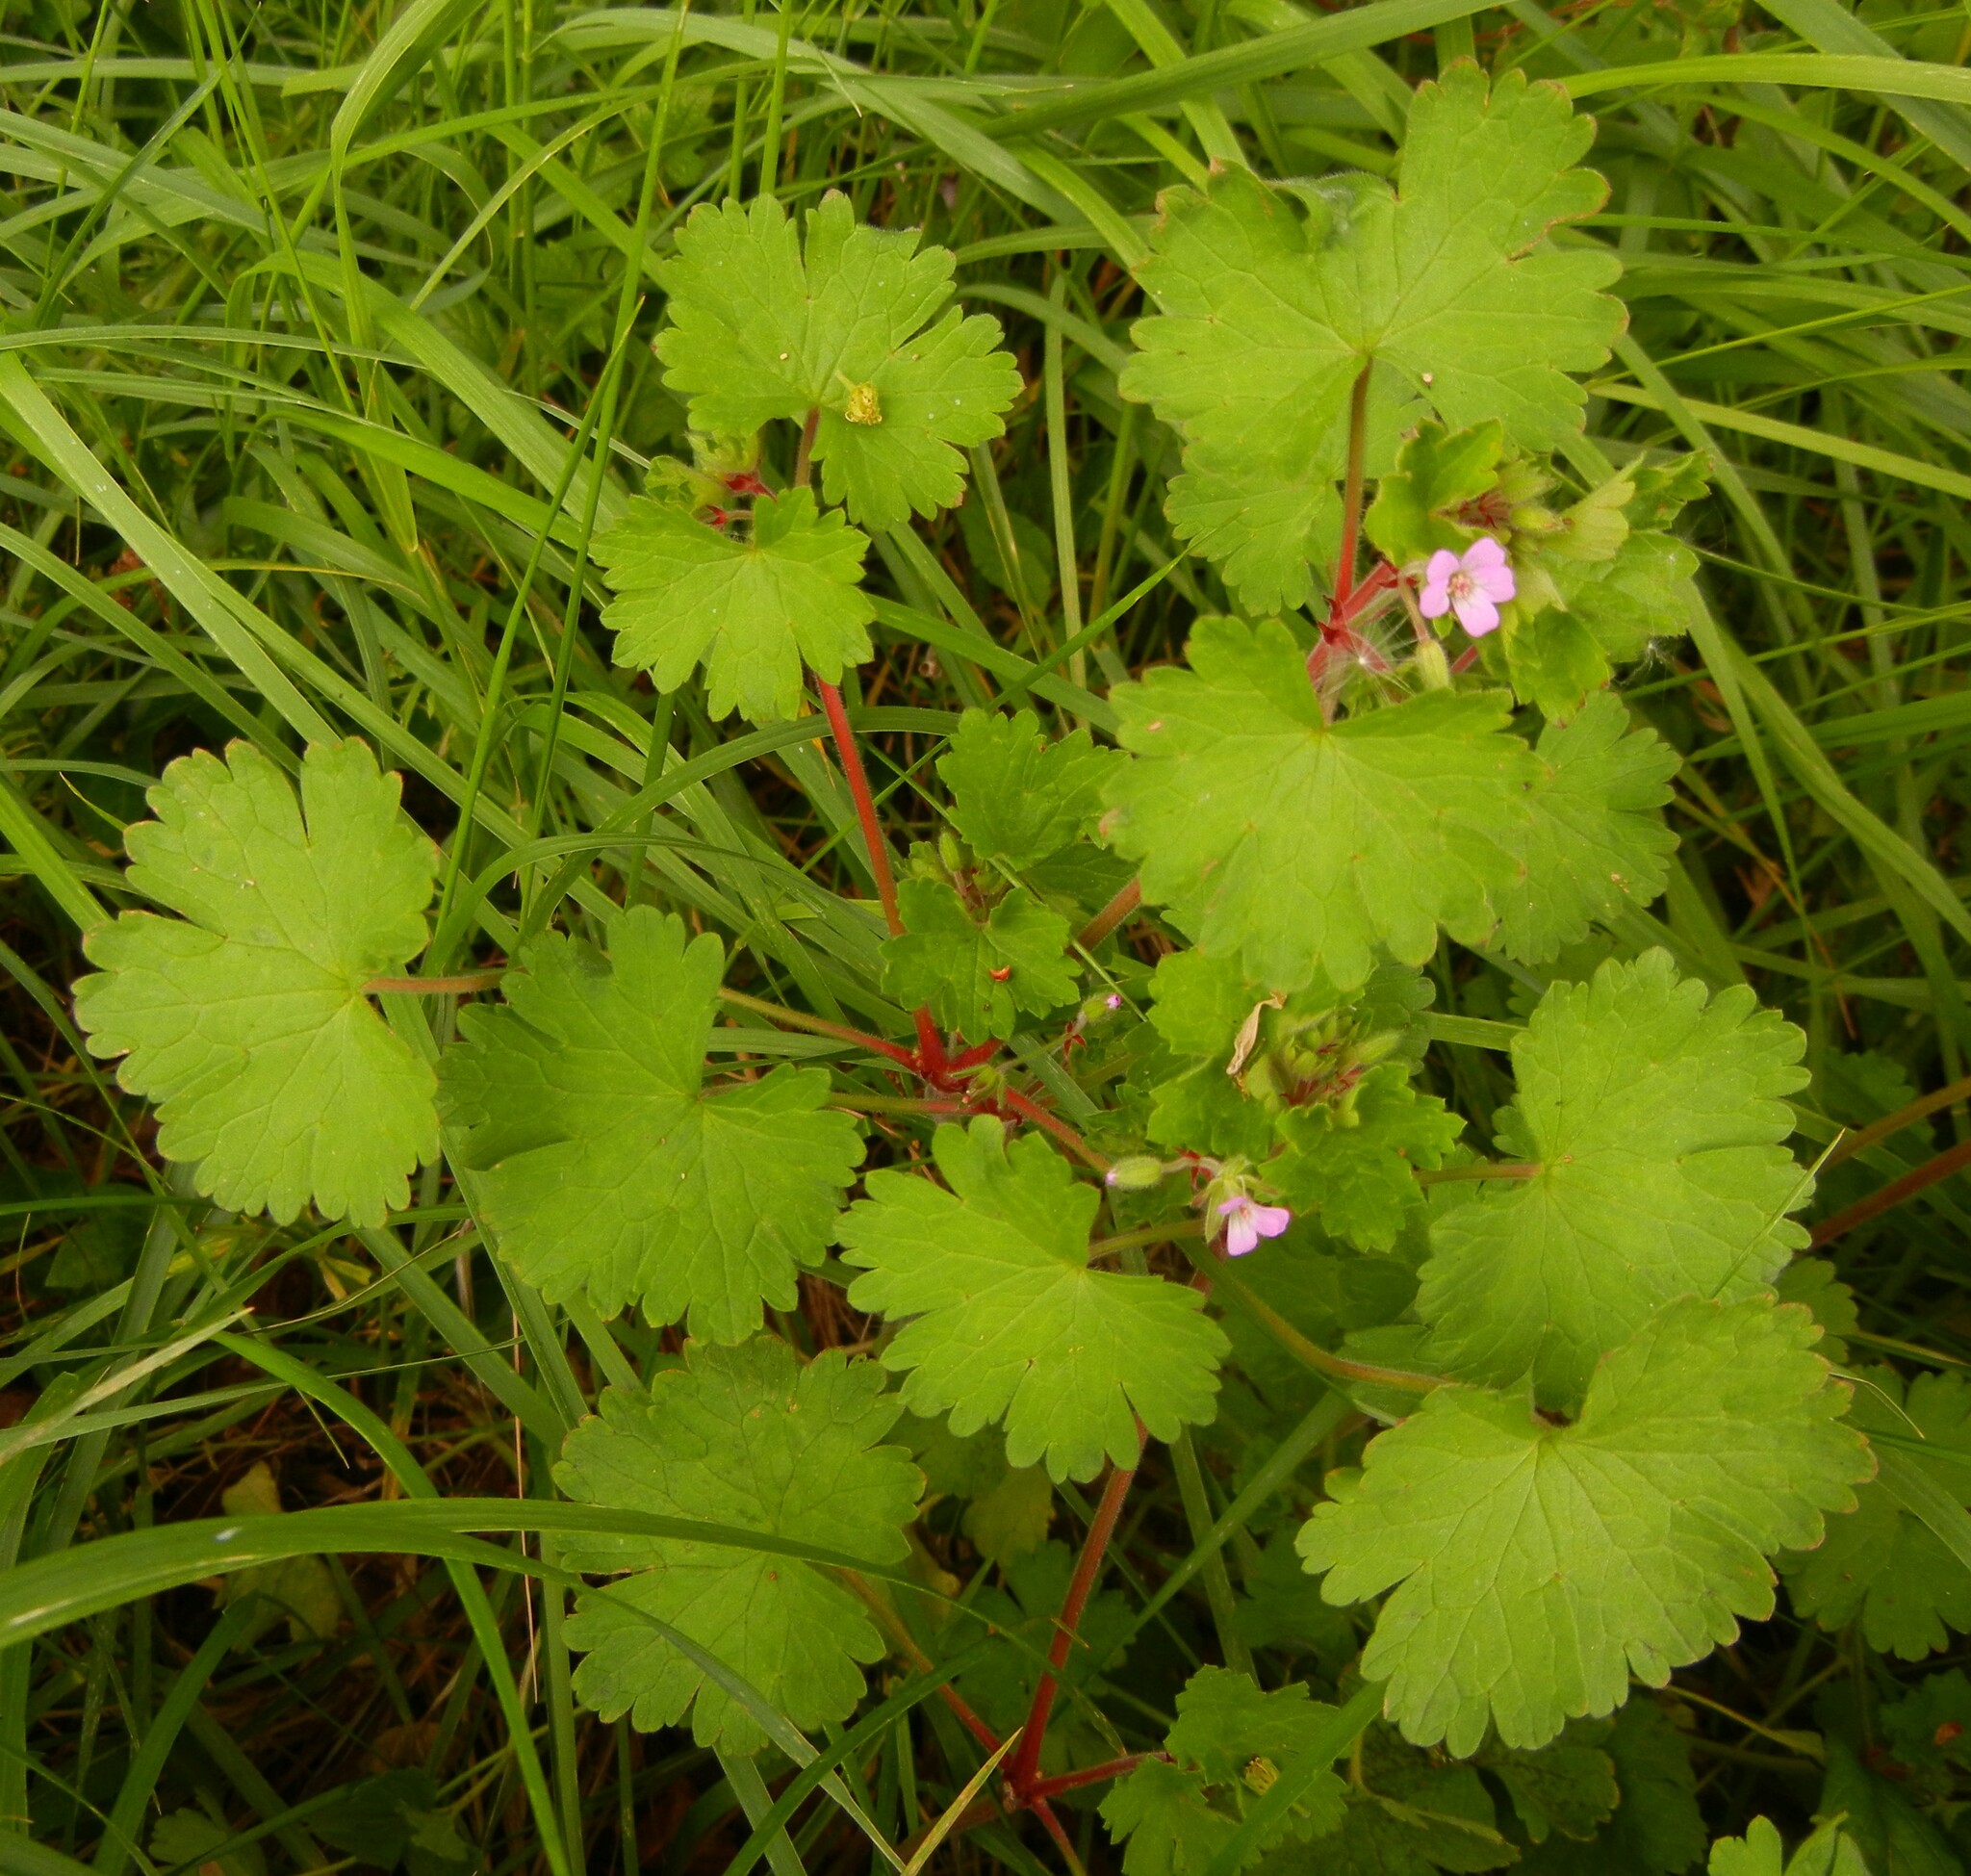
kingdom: Plantae
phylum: Tracheophyta
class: Magnoliopsida
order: Geraniales
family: Geraniaceae
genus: Geranium
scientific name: Geranium rotundifolium
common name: Round-leaved crane's-bill
